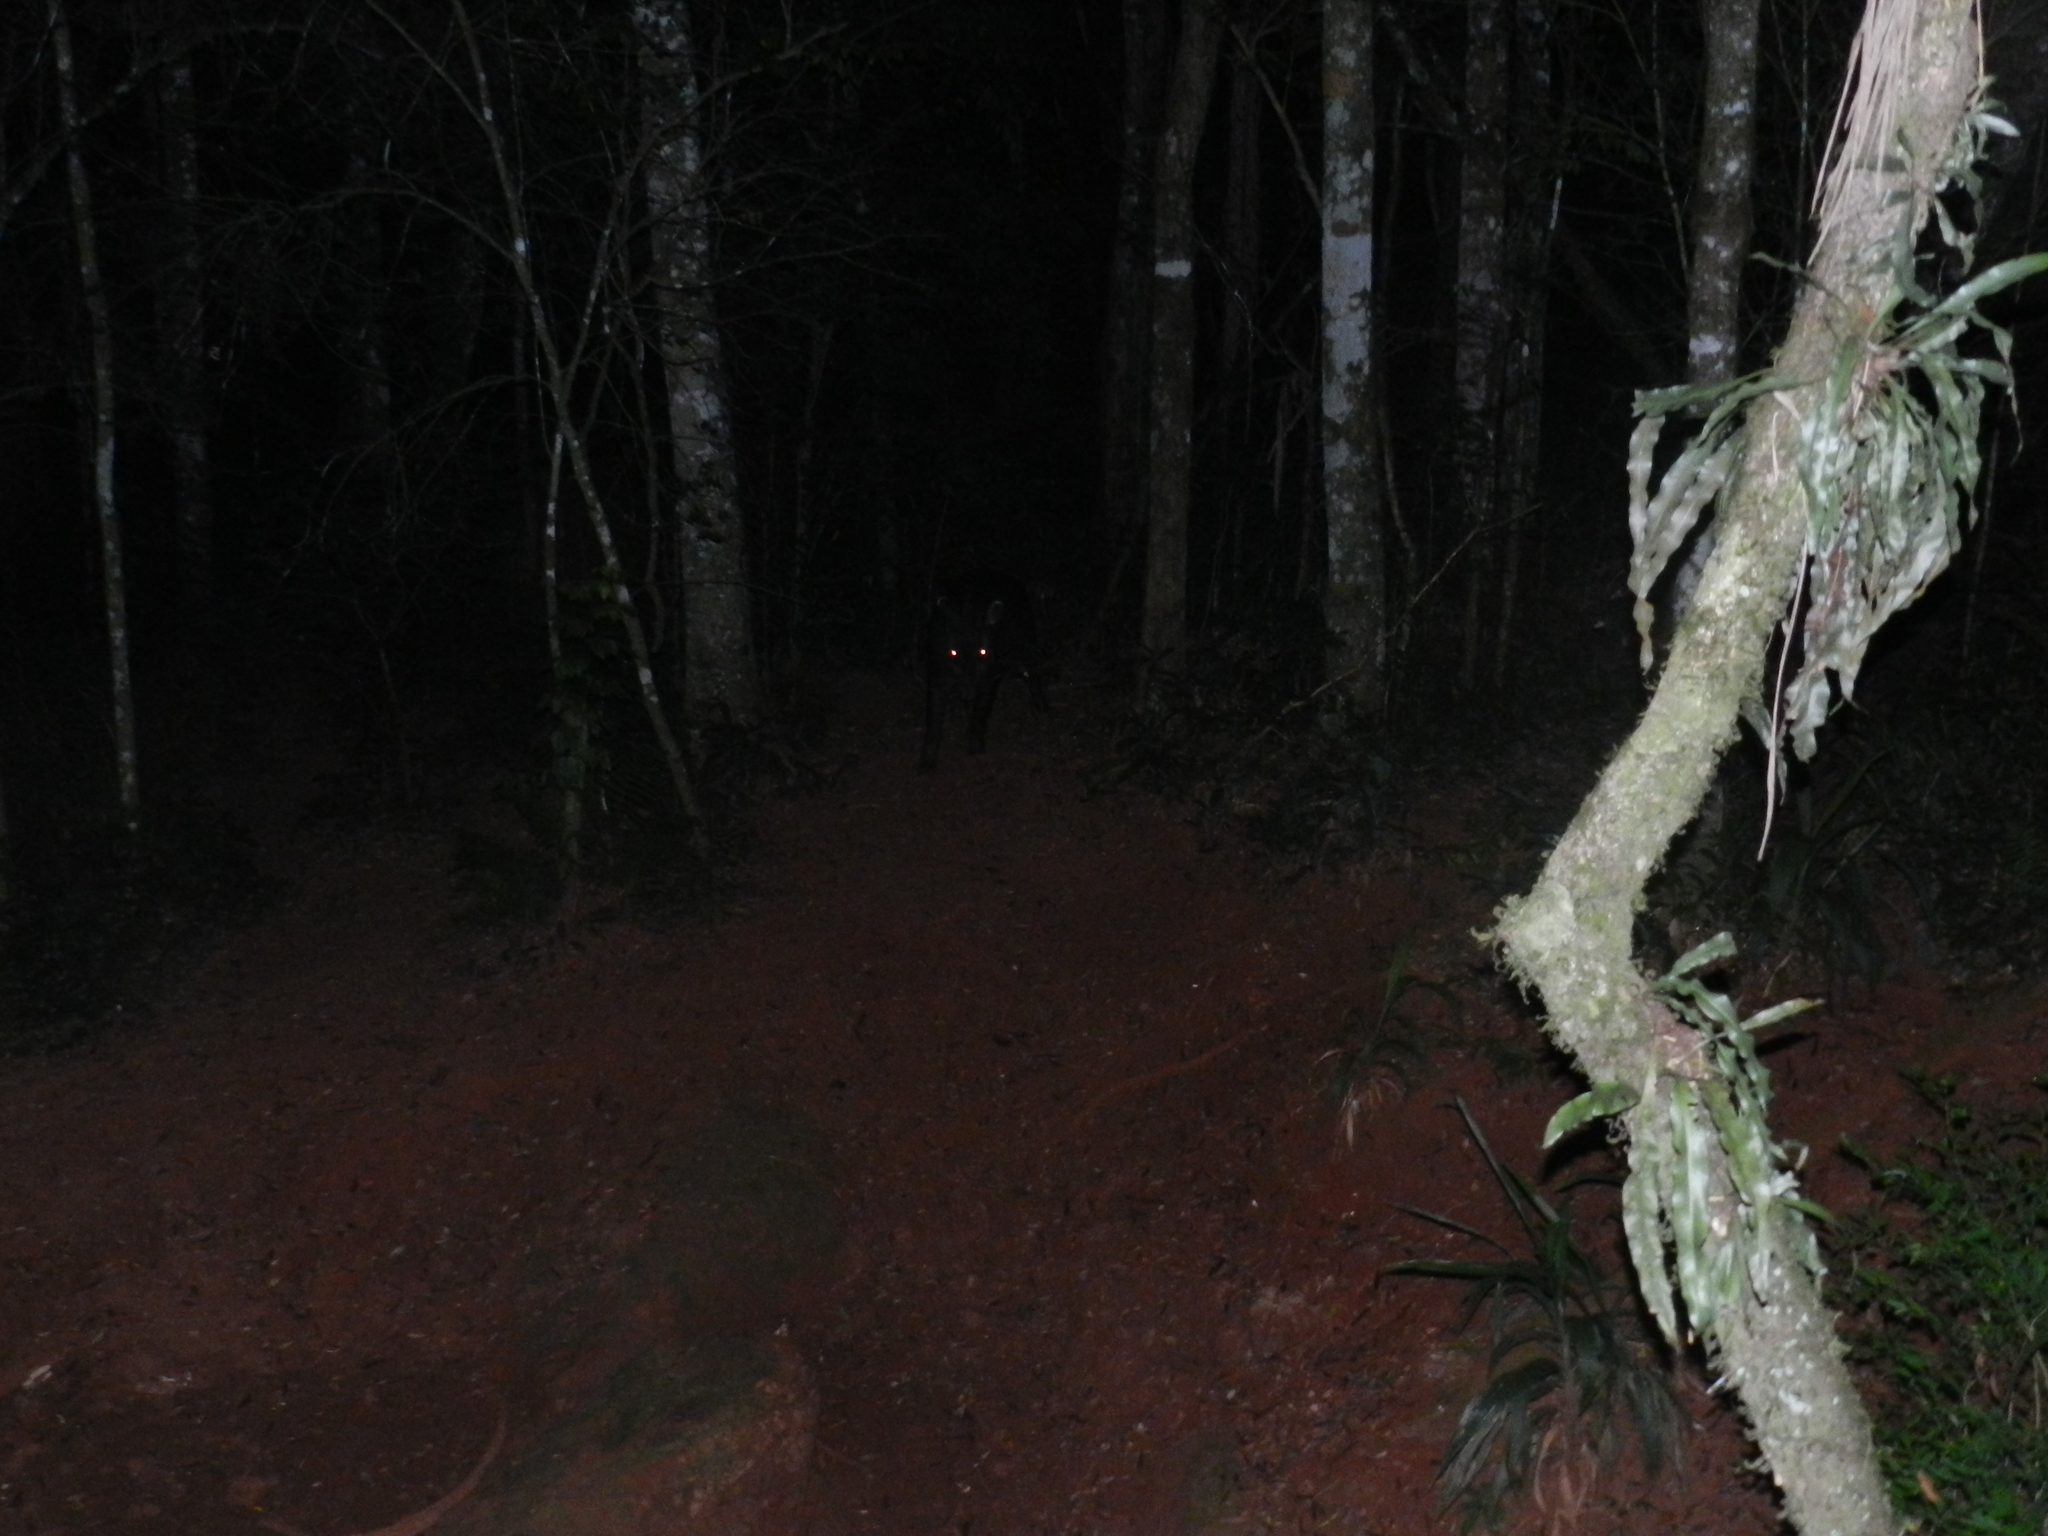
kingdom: Animalia
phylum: Chordata
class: Mammalia
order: Perissodactyla
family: Tapiridae
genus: Tapirus
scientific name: Tapirus terrestris
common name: Brazilian tapir
